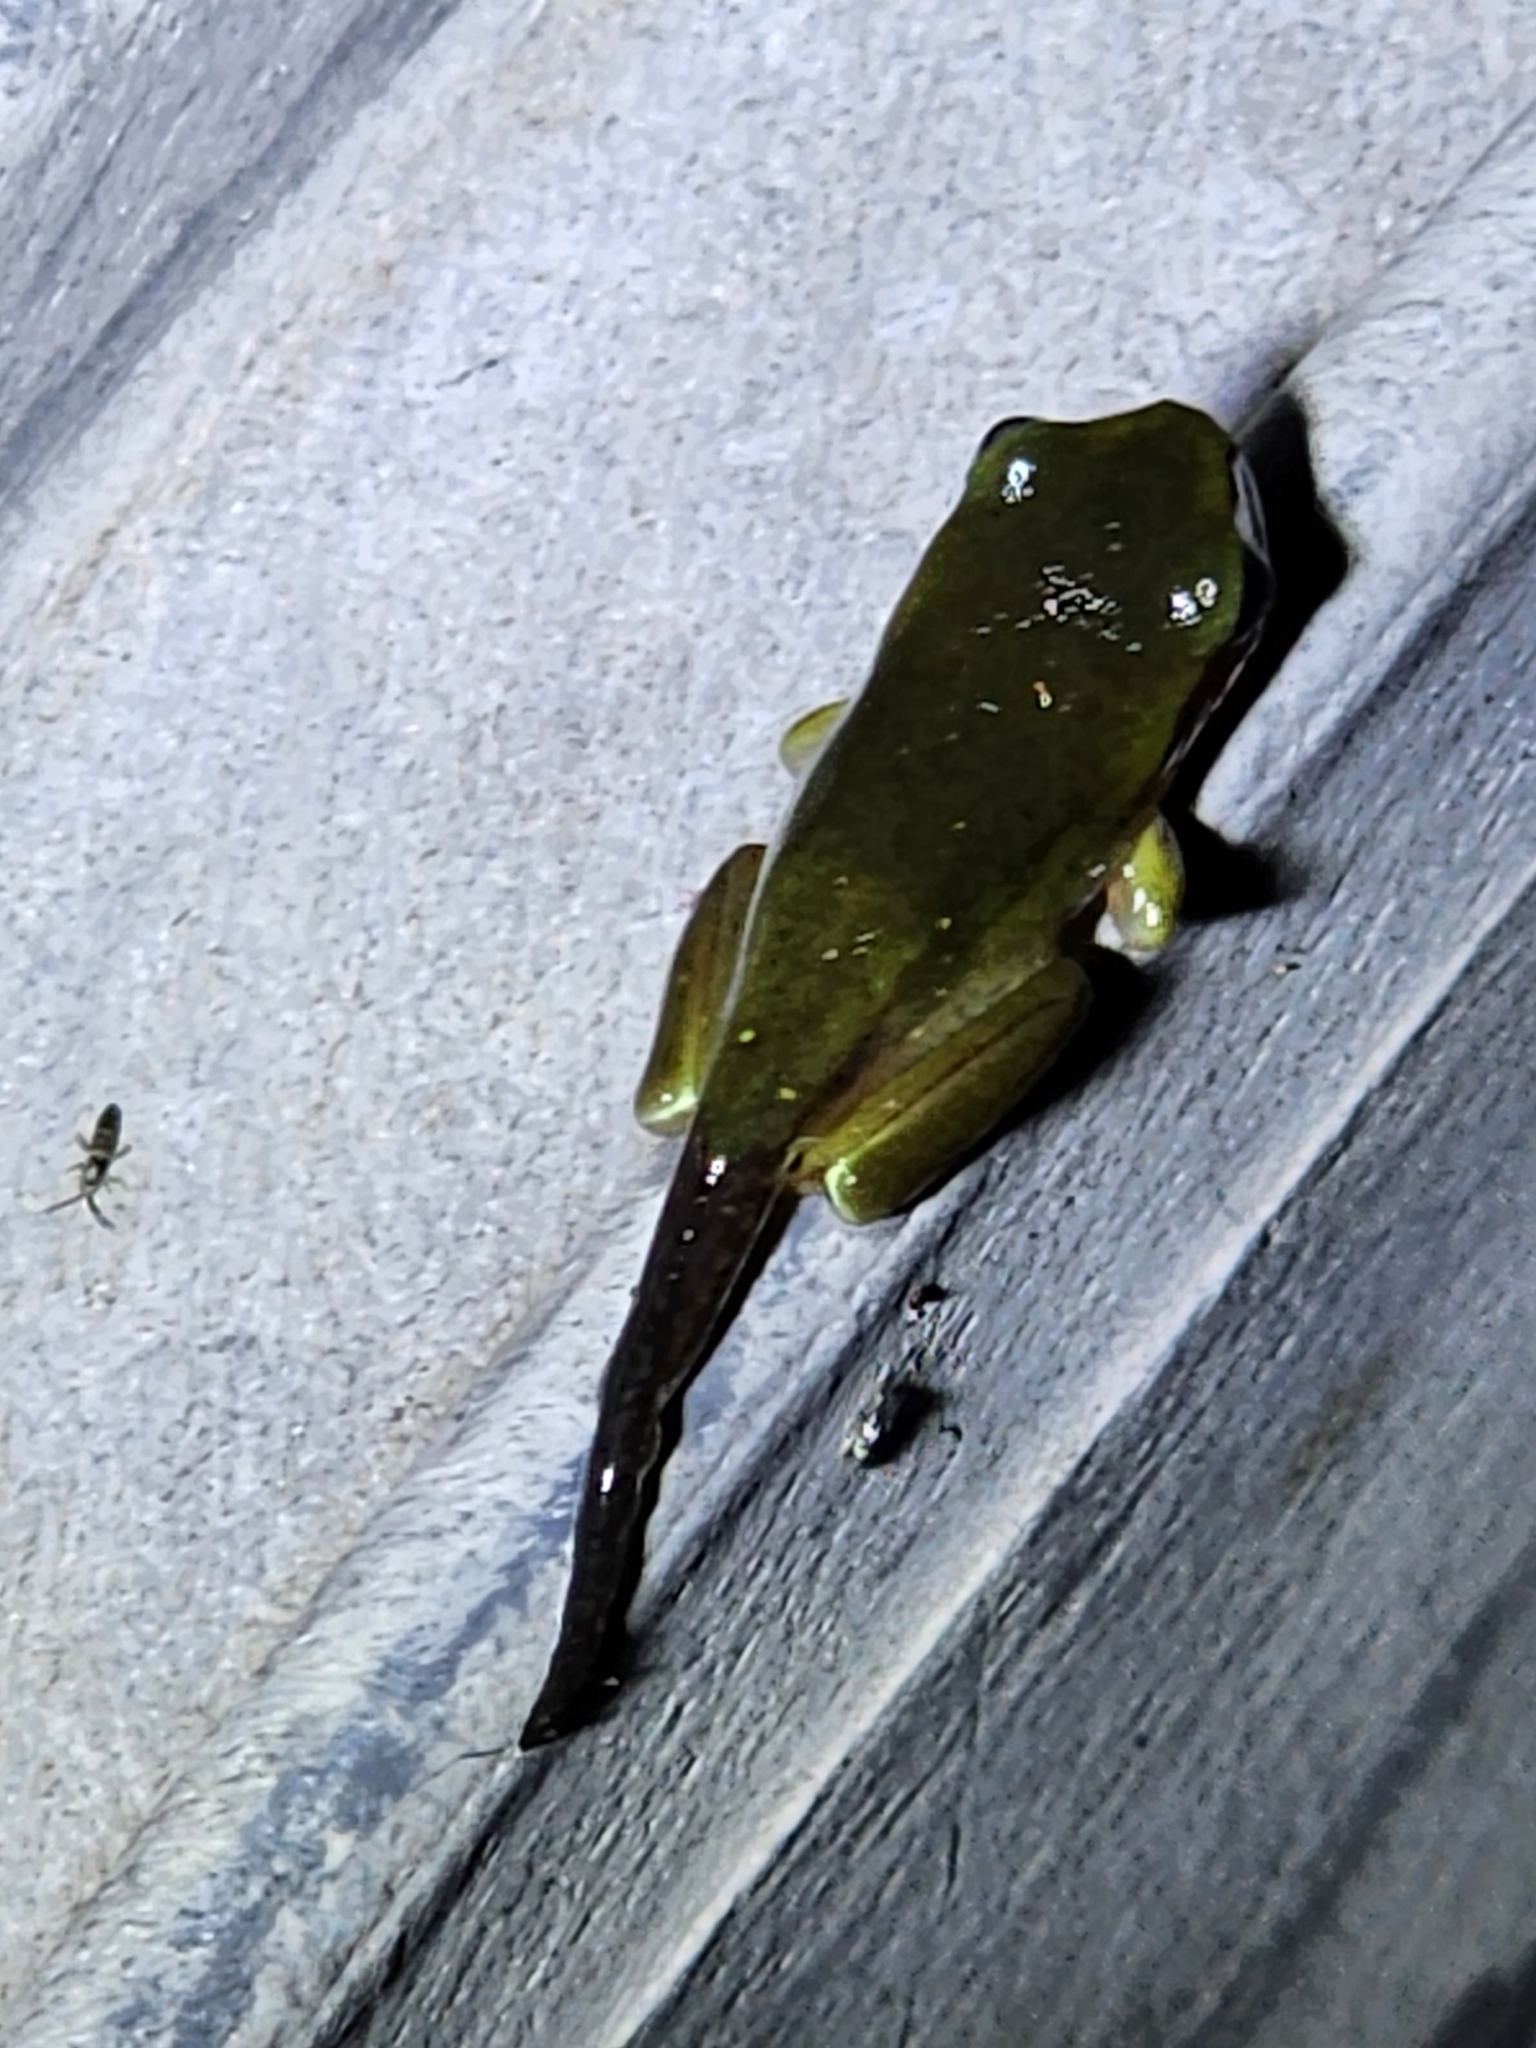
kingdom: Animalia
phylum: Chordata
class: Amphibia
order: Anura
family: Pelodryadidae
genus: Ranoidea
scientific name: Ranoidea caerulea
